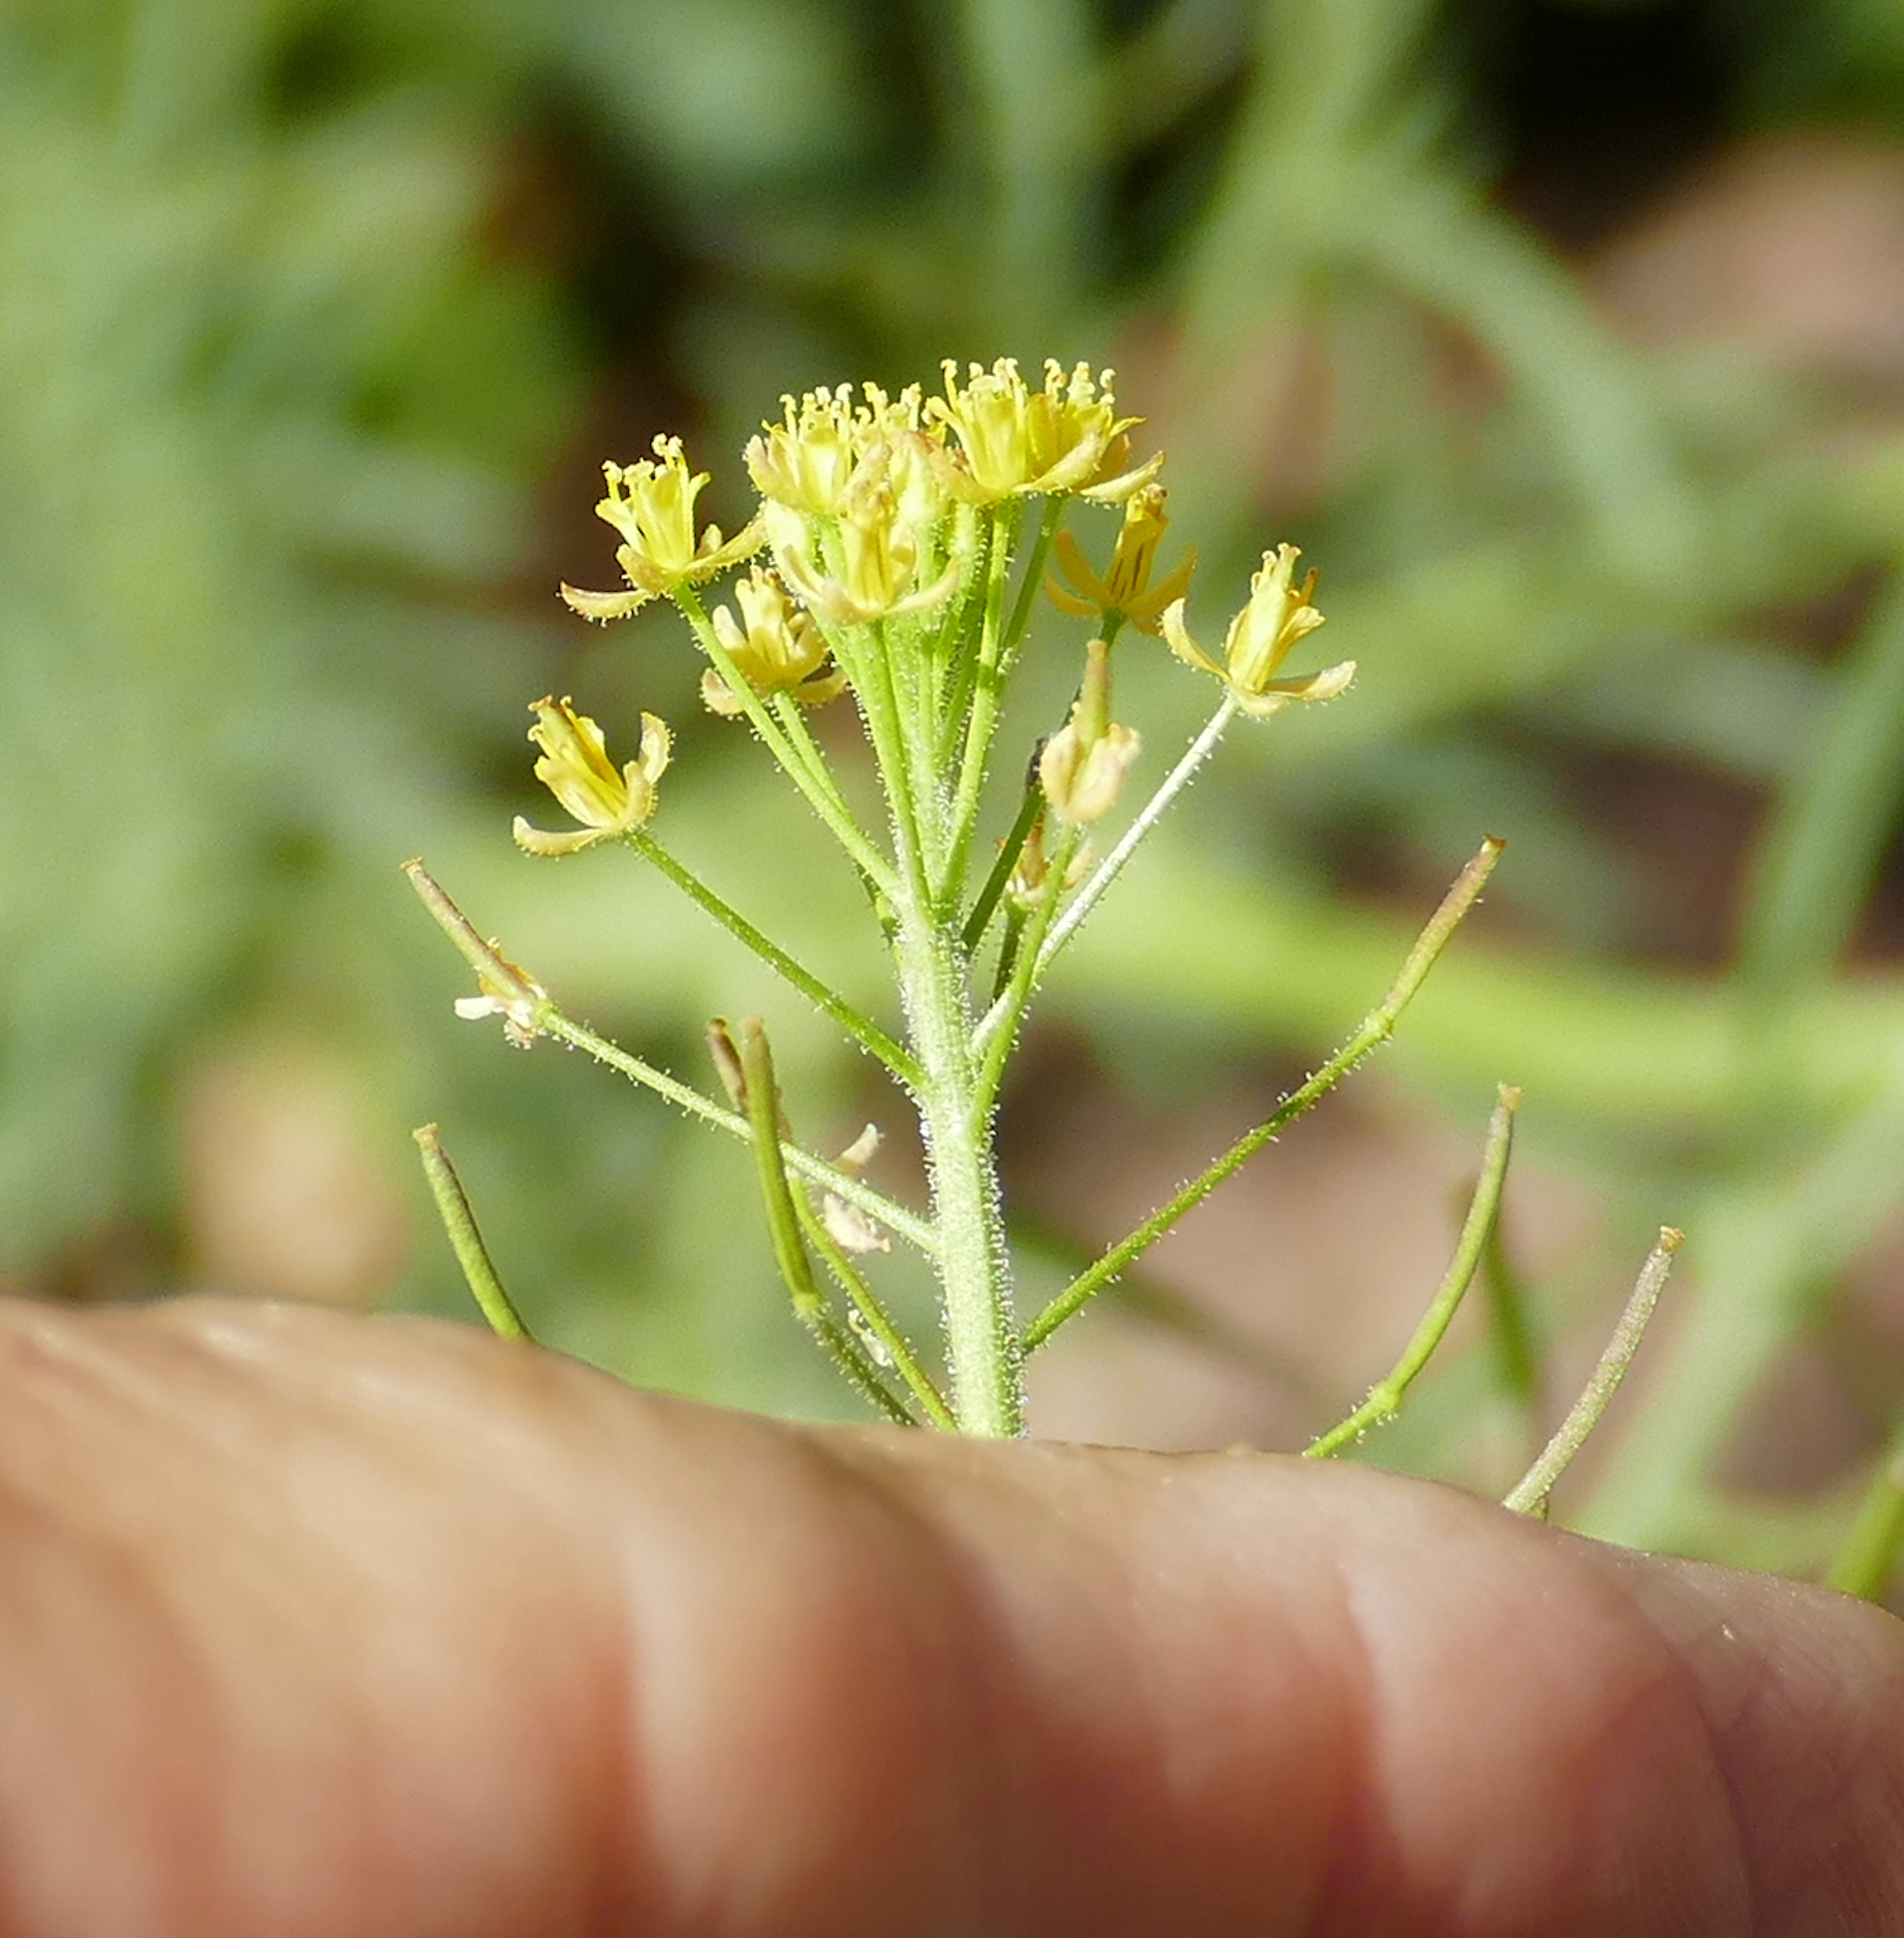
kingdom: Plantae
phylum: Tracheophyta
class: Magnoliopsida
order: Brassicales
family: Brassicaceae
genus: Descurainia
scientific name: Descurainia adenophora
